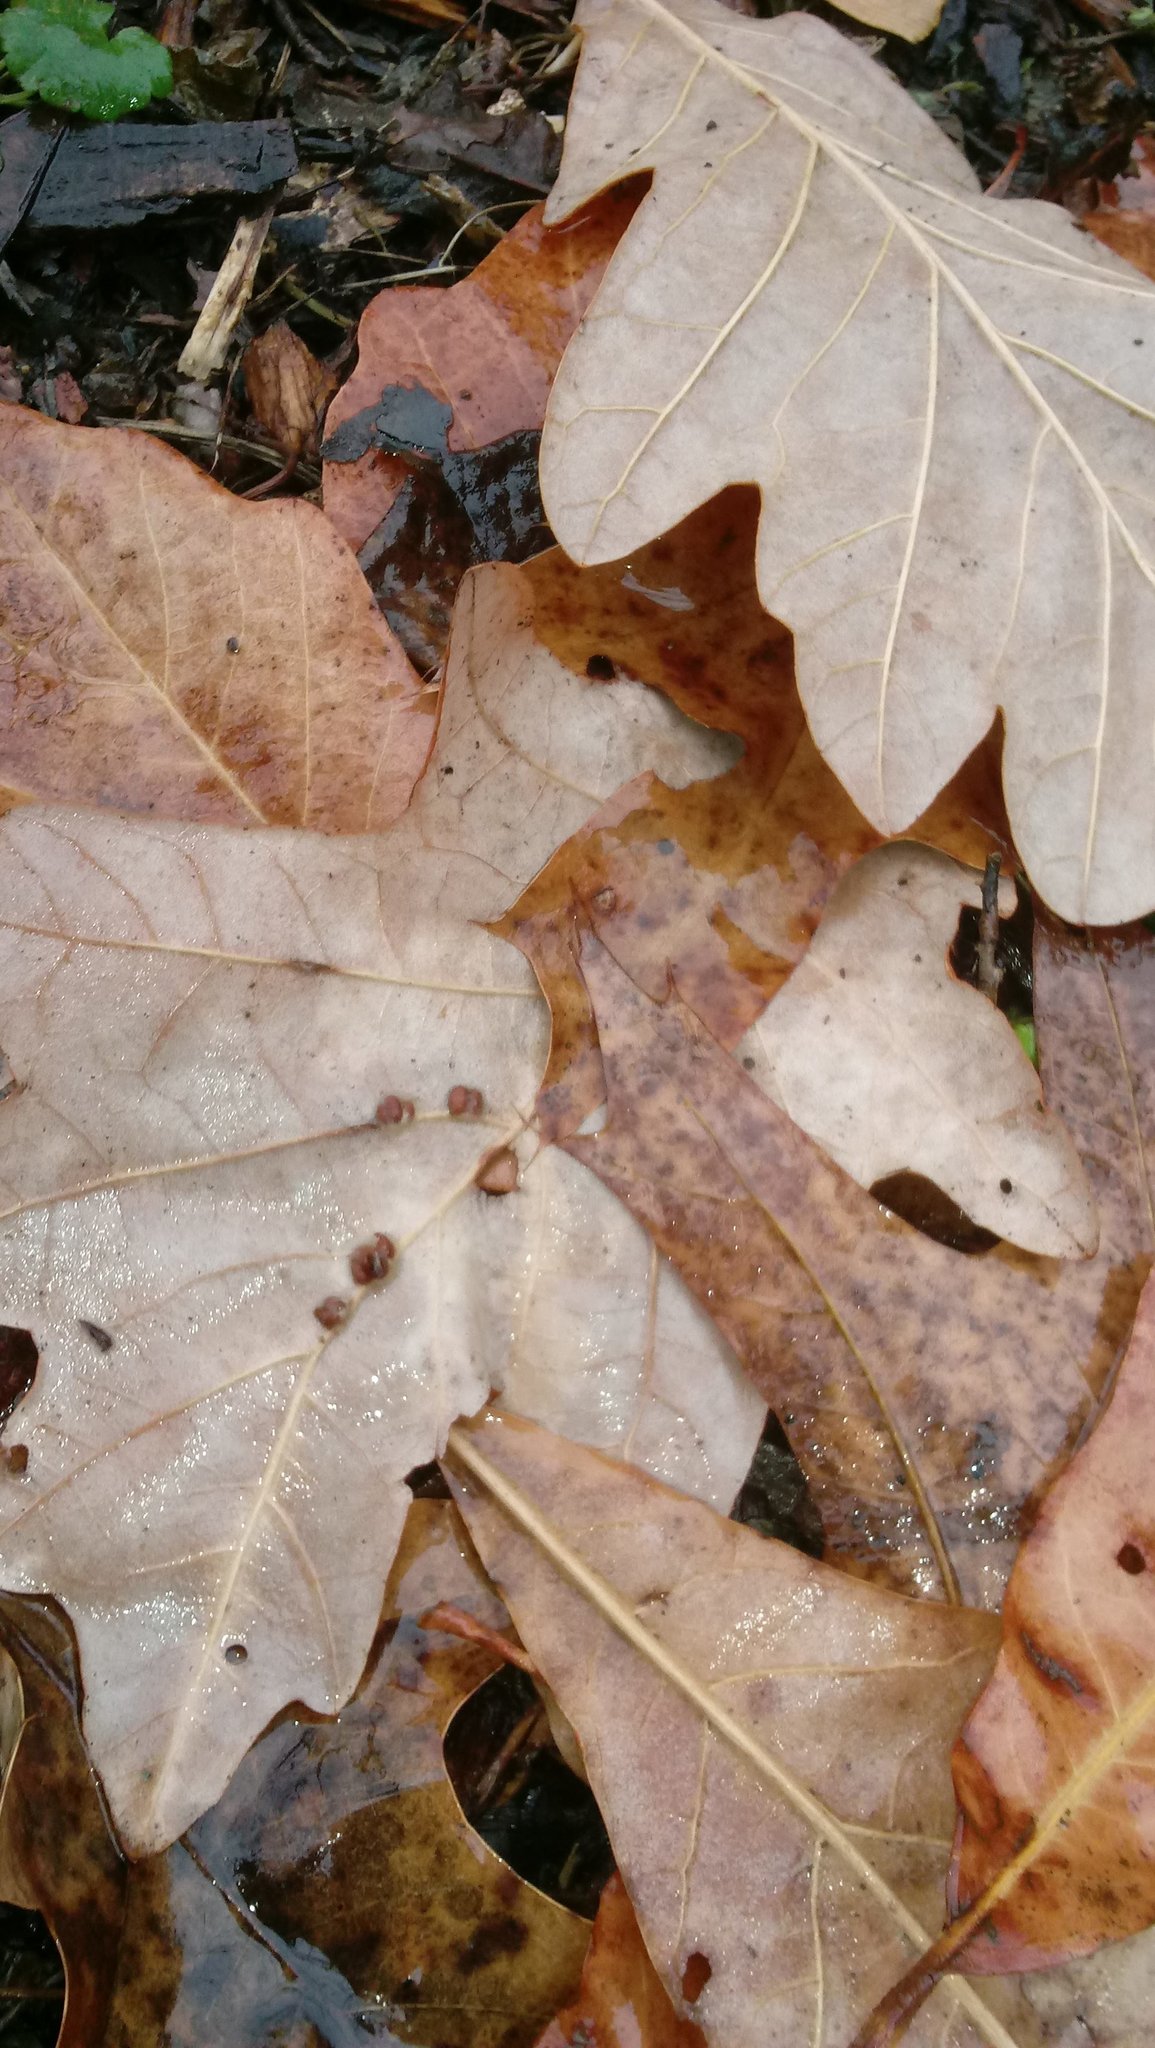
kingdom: Animalia
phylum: Arthropoda
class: Insecta
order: Hymenoptera
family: Cynipidae
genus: Andricus
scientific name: Andricus Druon ignotum
